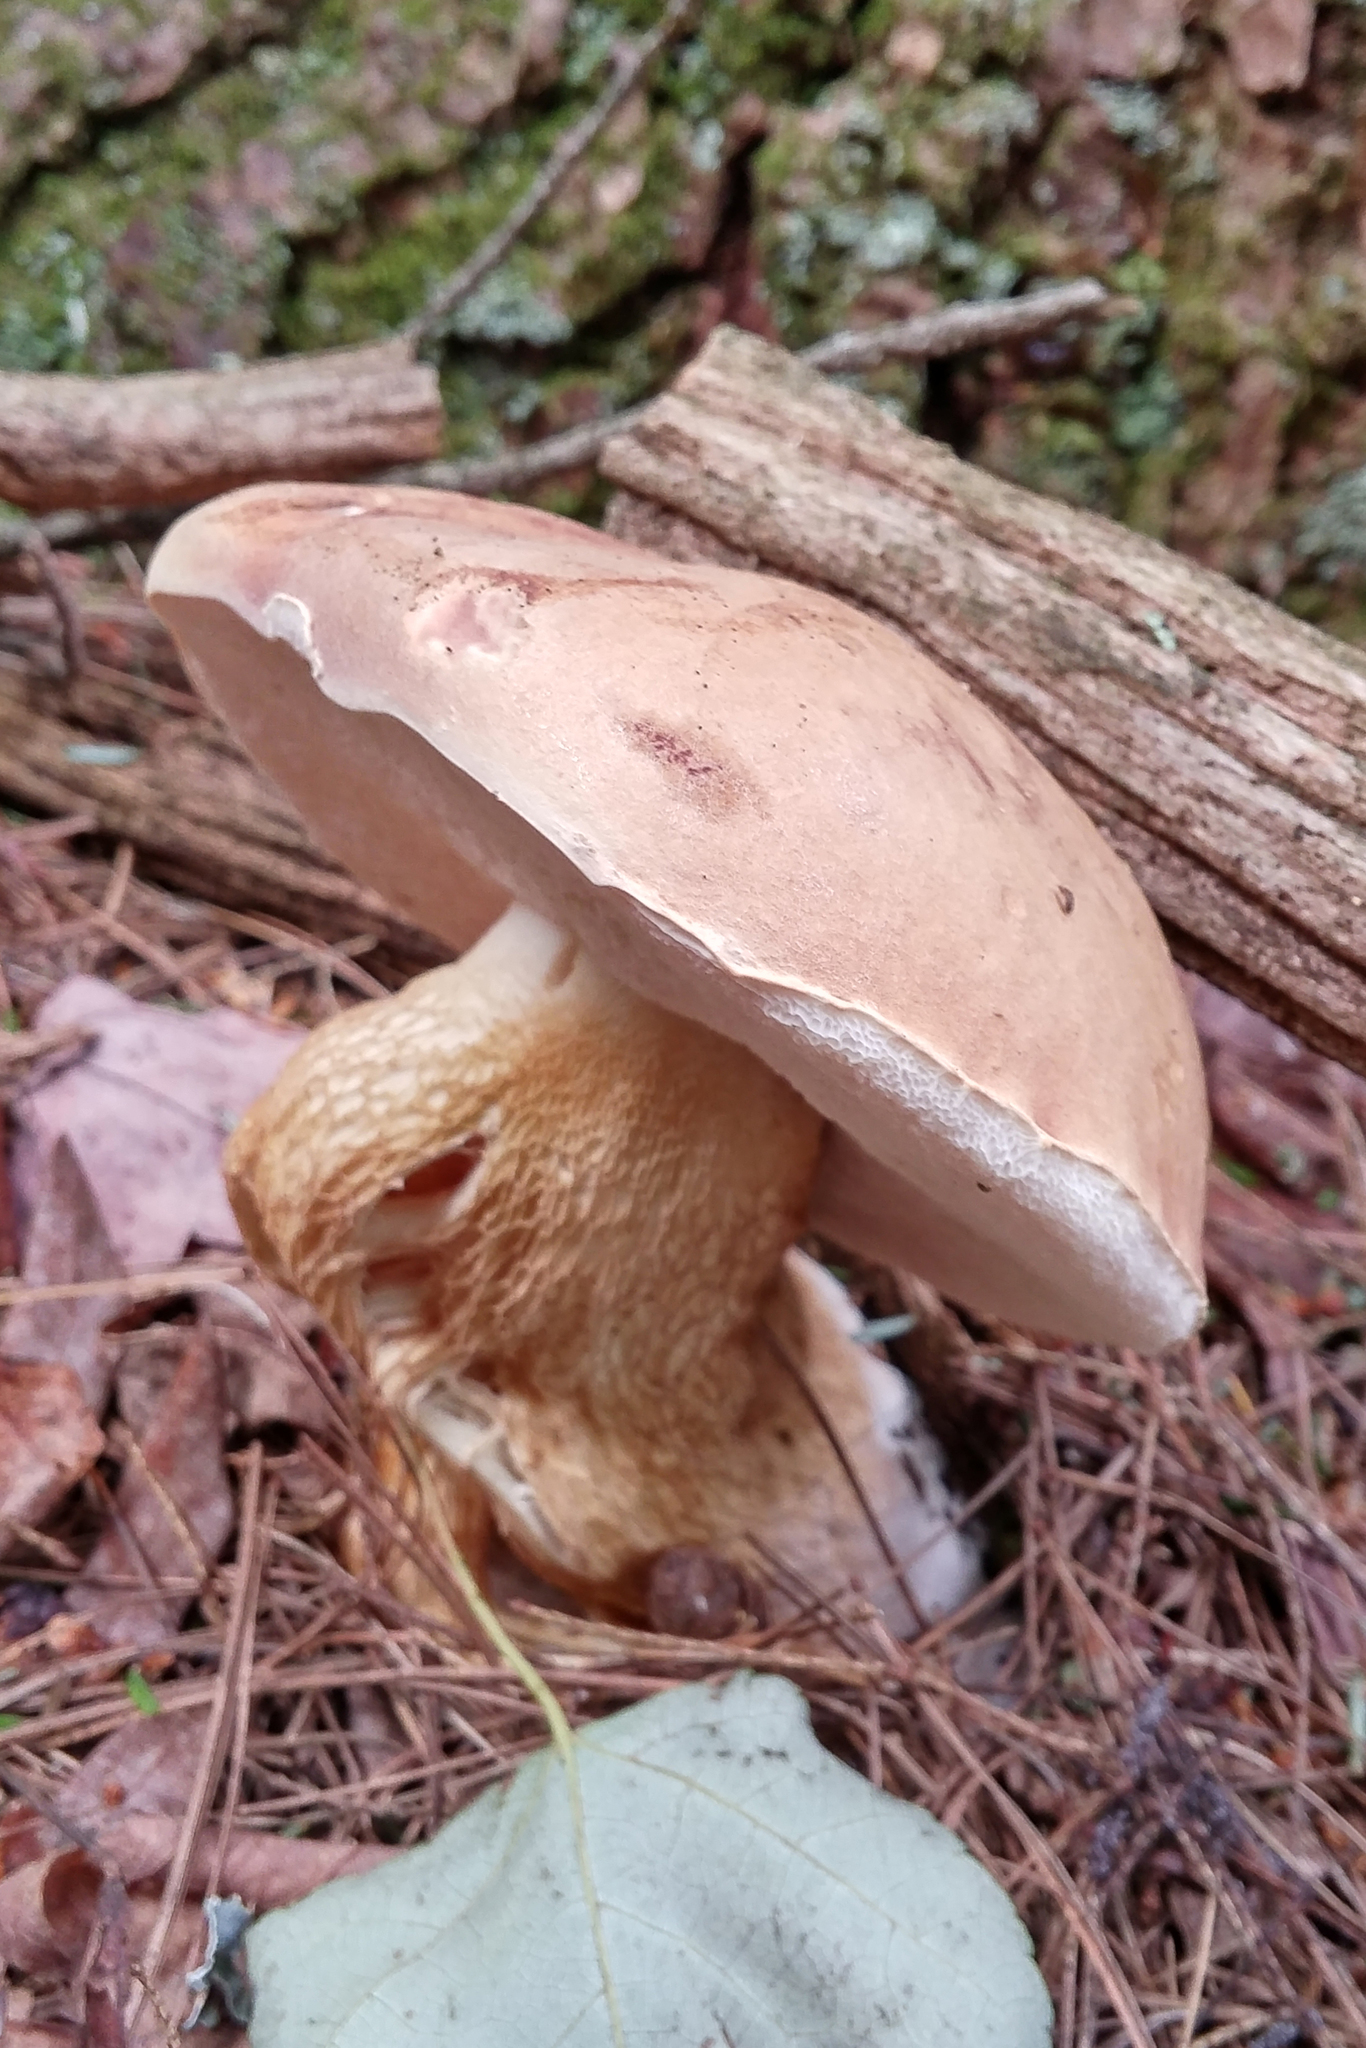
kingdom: Fungi
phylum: Basidiomycota
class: Agaricomycetes
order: Boletales
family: Boletaceae
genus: Tylopilus
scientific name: Tylopilus felleus
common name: Bitter bolete
